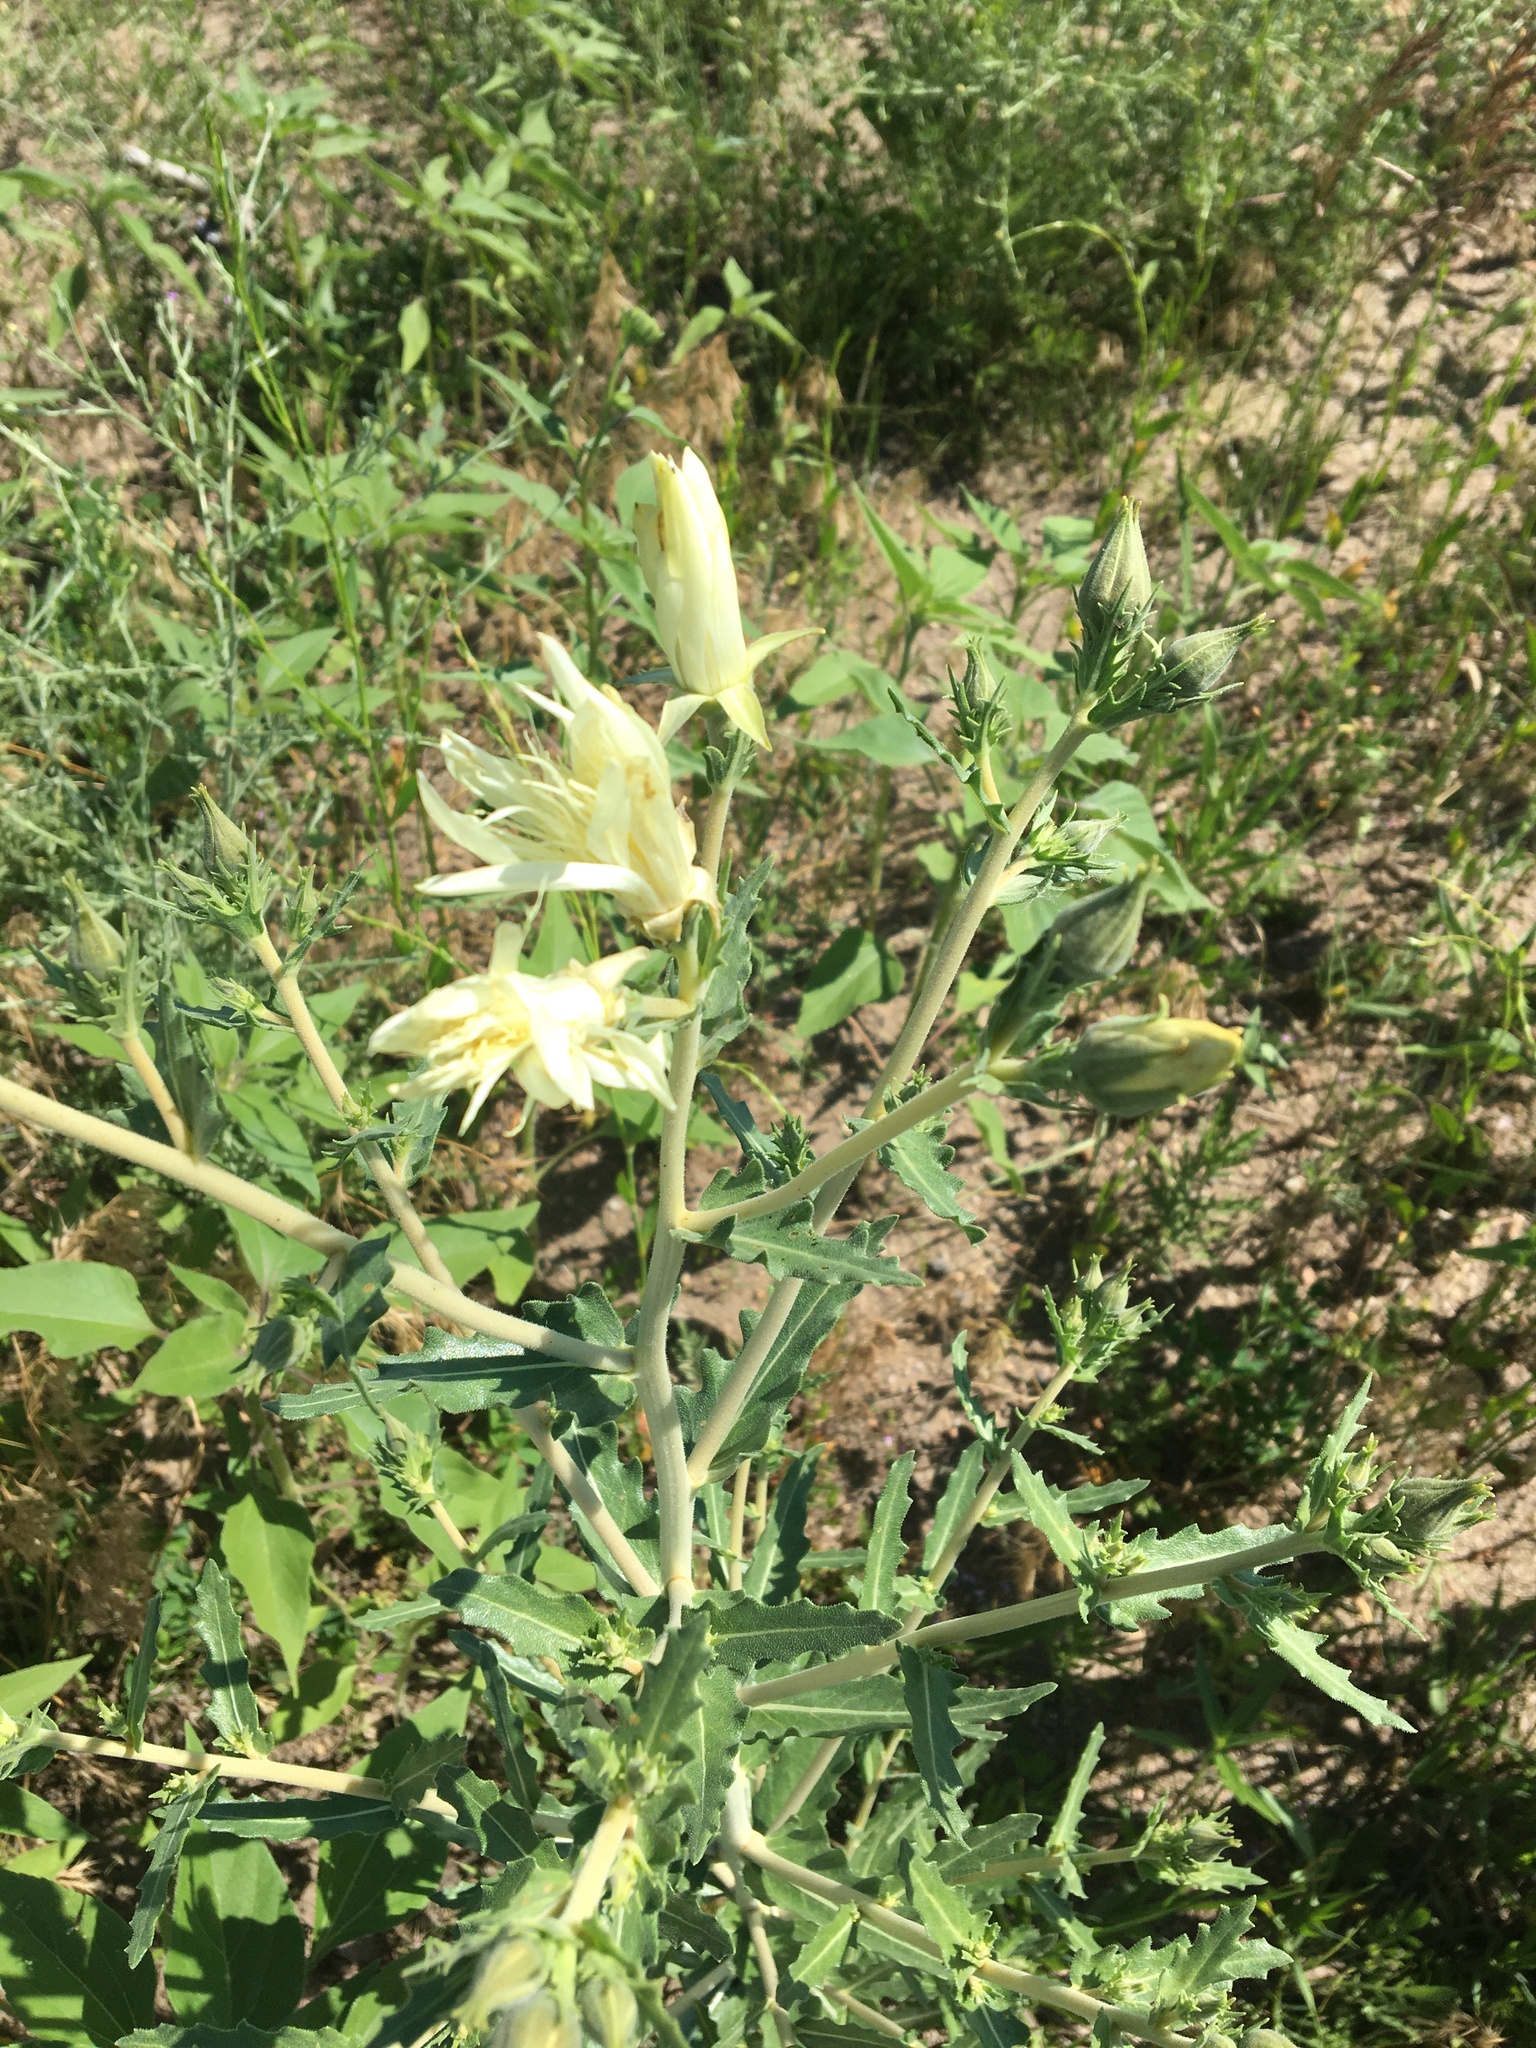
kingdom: Plantae
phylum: Tracheophyta
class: Magnoliopsida
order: Cornales
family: Loasaceae
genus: Mentzelia
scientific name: Mentzelia nuda
